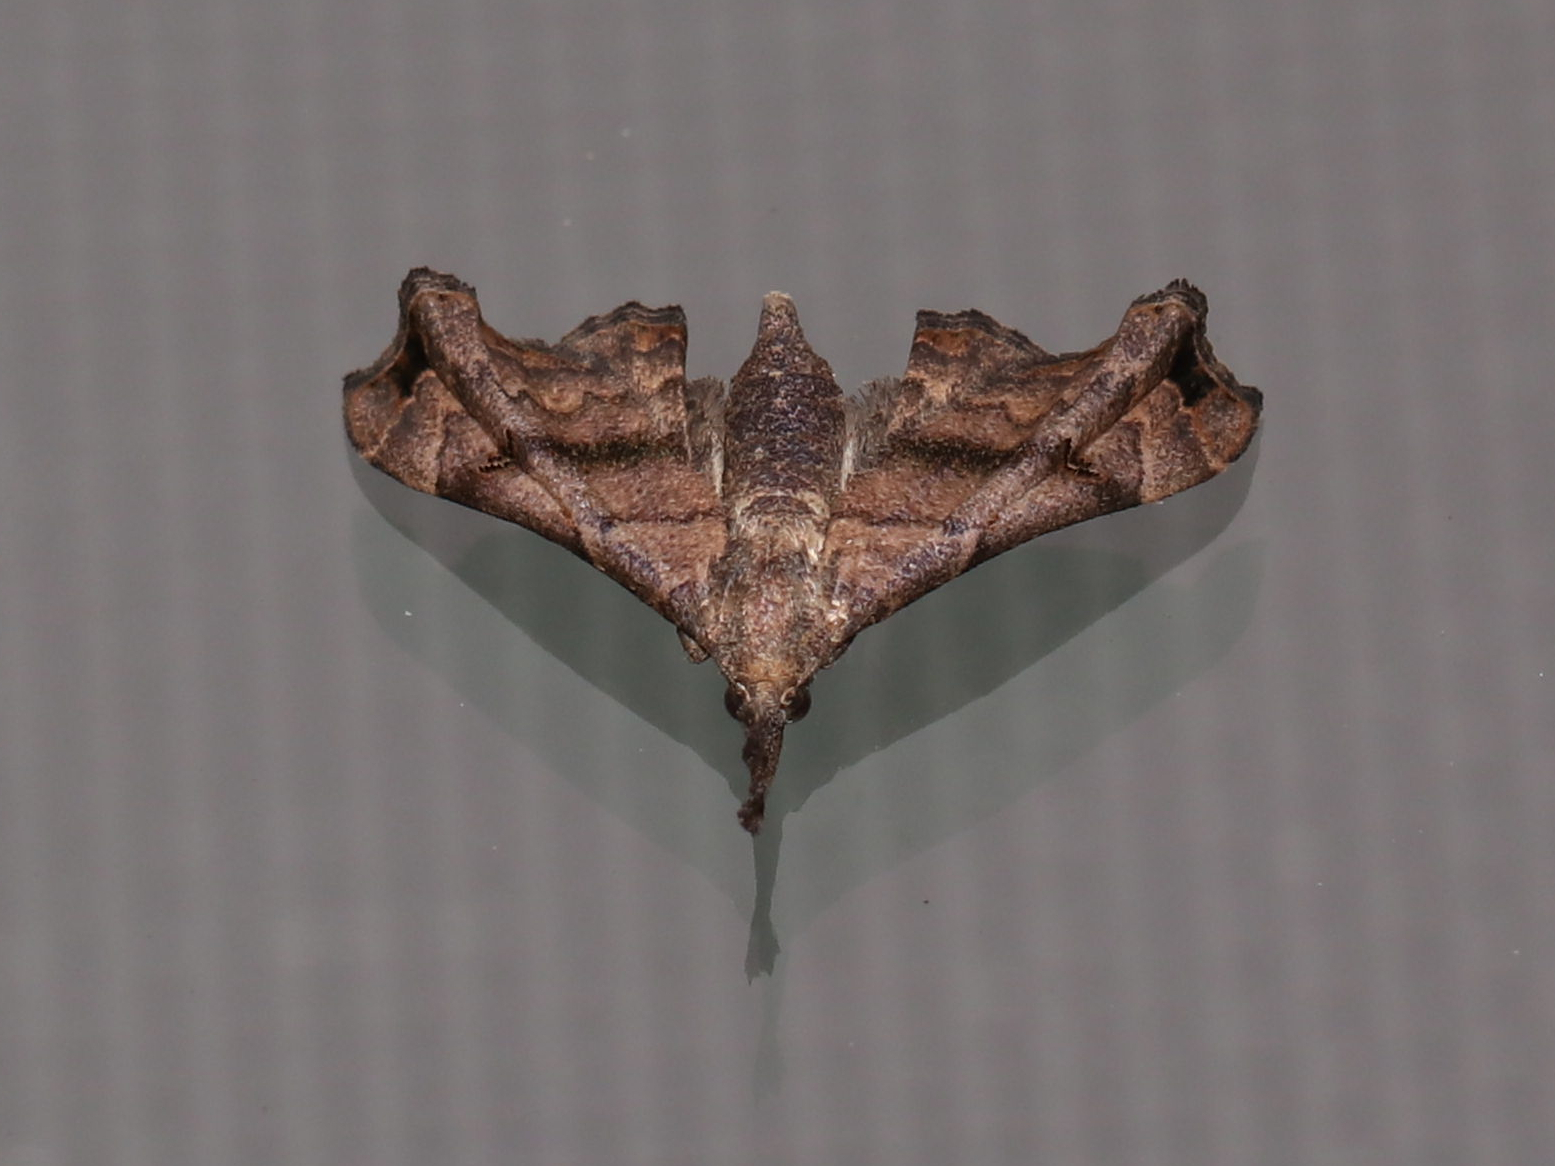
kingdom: Animalia
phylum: Arthropoda
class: Insecta
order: Lepidoptera
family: Erebidae
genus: Palthis
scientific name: Palthis asopialis
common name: Faint-spotted palthis moth
